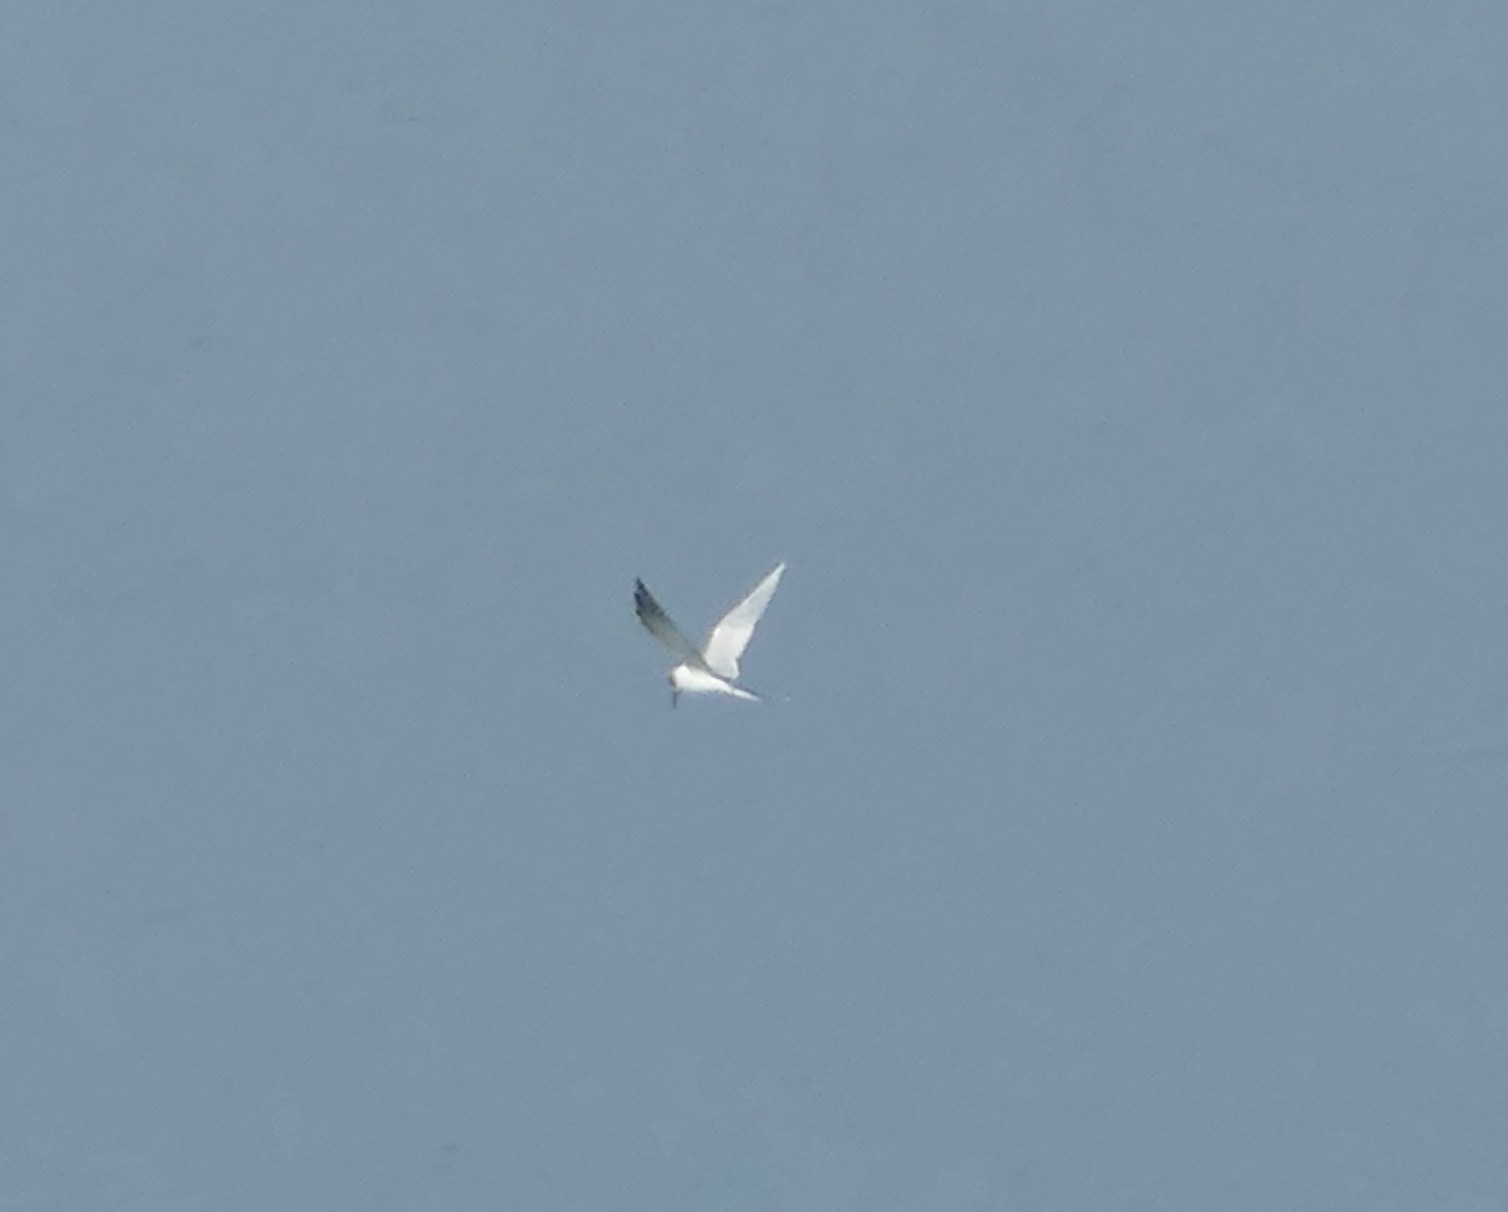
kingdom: Animalia
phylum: Chordata
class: Aves
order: Charadriiformes
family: Laridae
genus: Sterna
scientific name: Sterna forsteri
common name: Forster's tern
